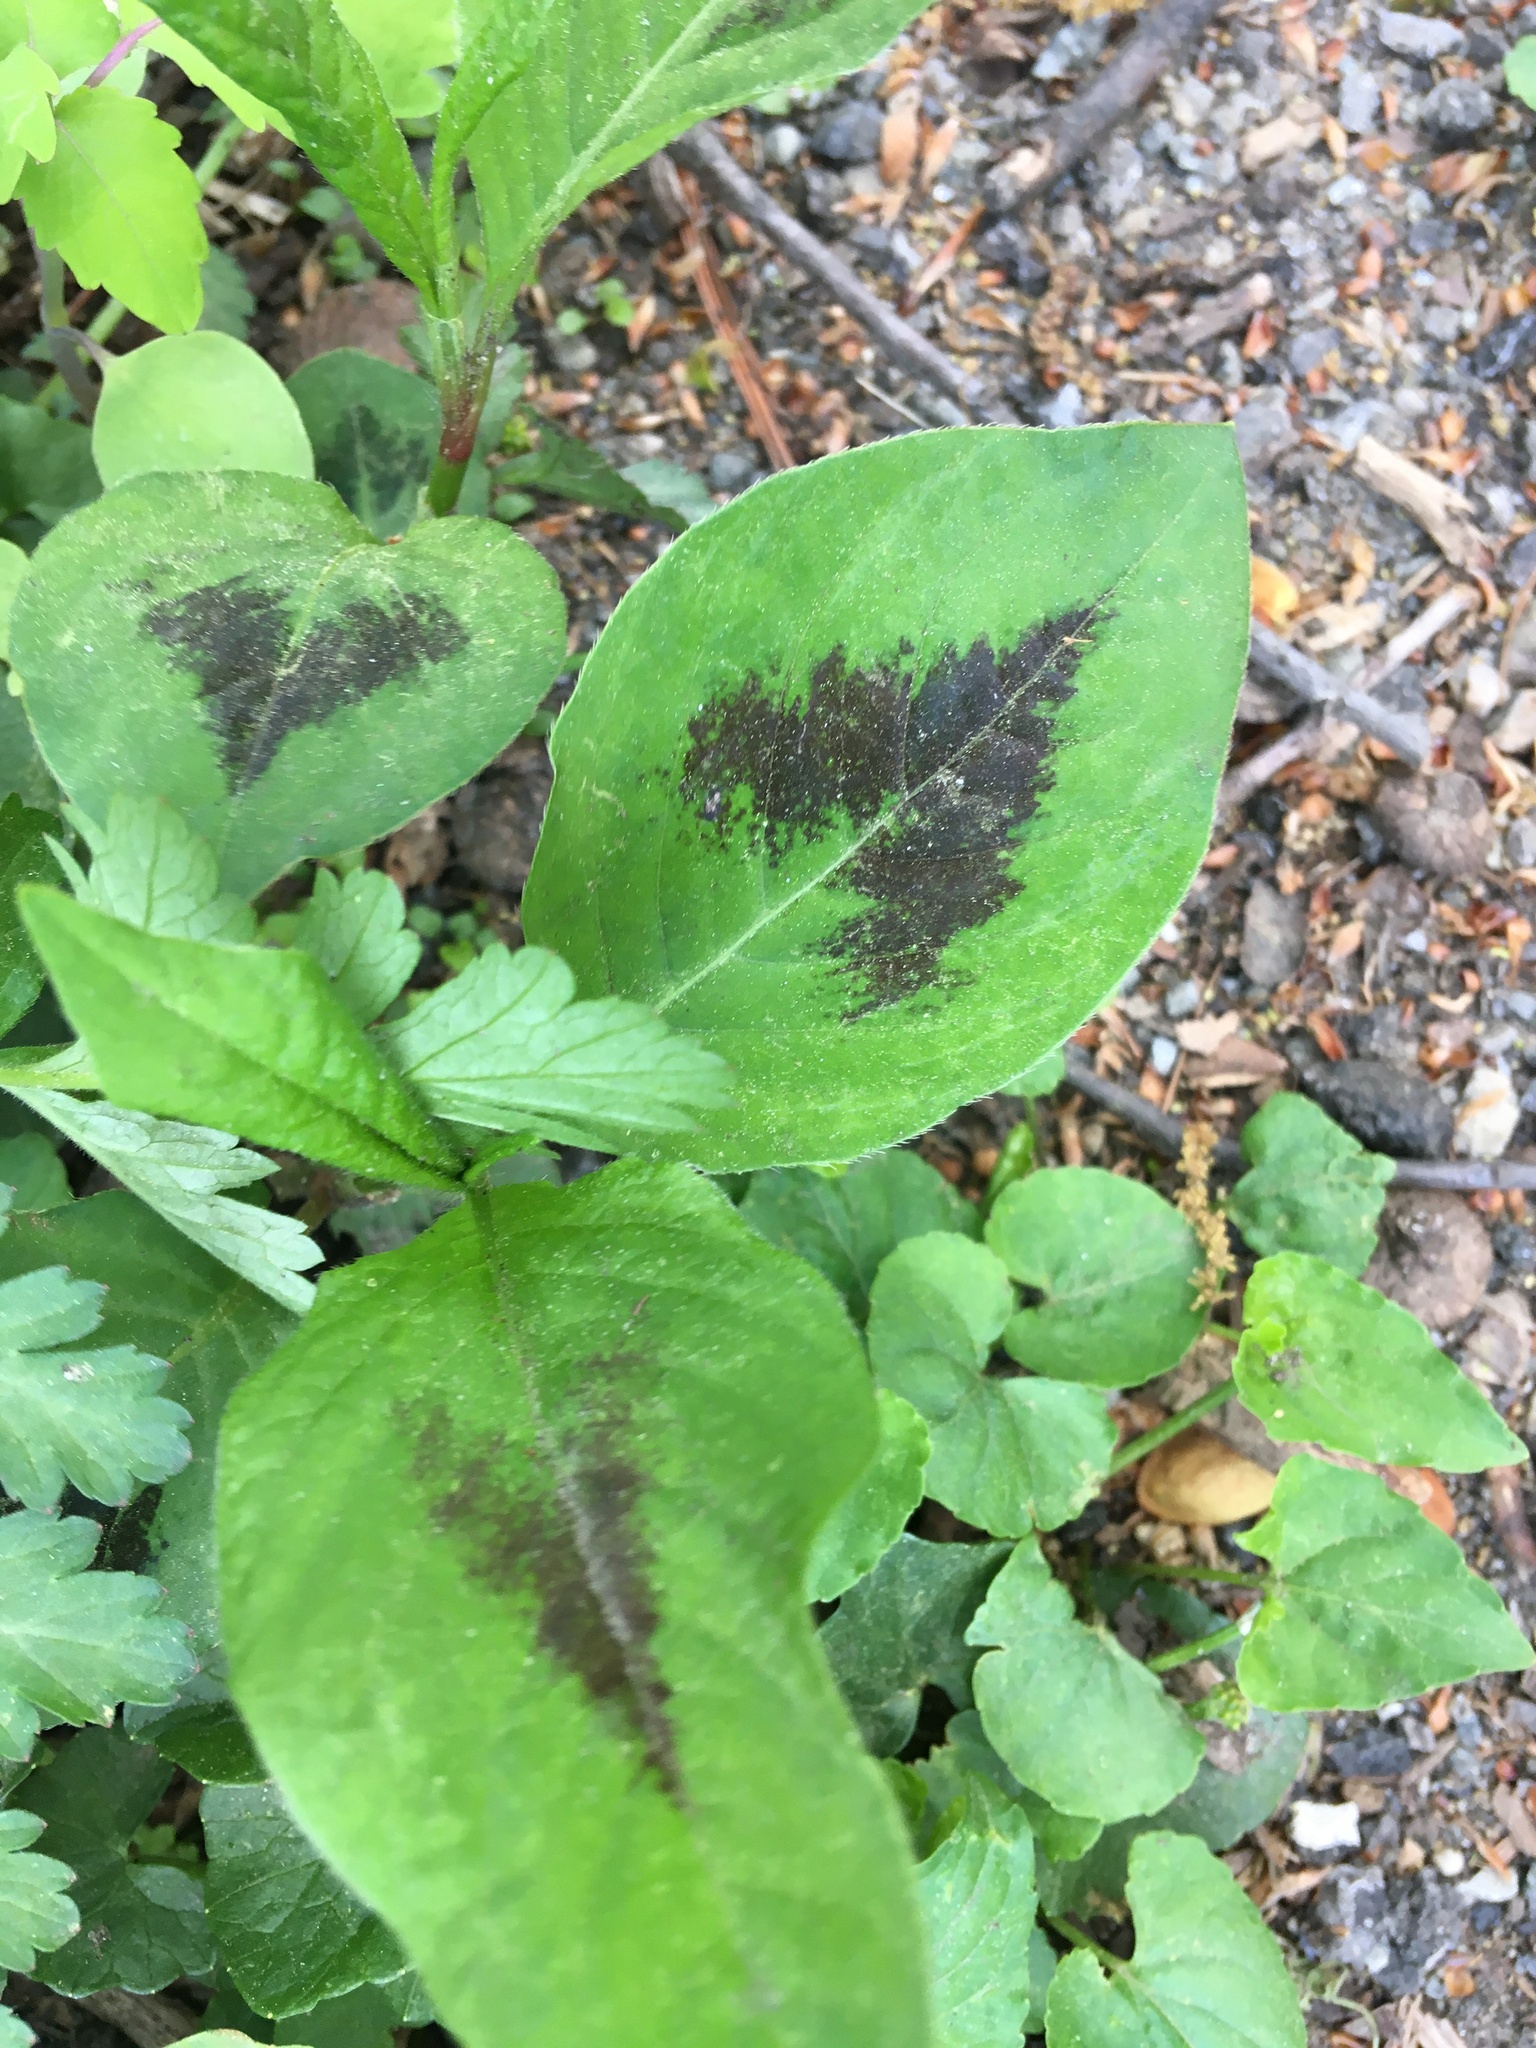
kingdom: Plantae
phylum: Tracheophyta
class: Magnoliopsida
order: Caryophyllales
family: Polygonaceae
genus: Persicaria
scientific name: Persicaria virginiana
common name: Jumpseed
